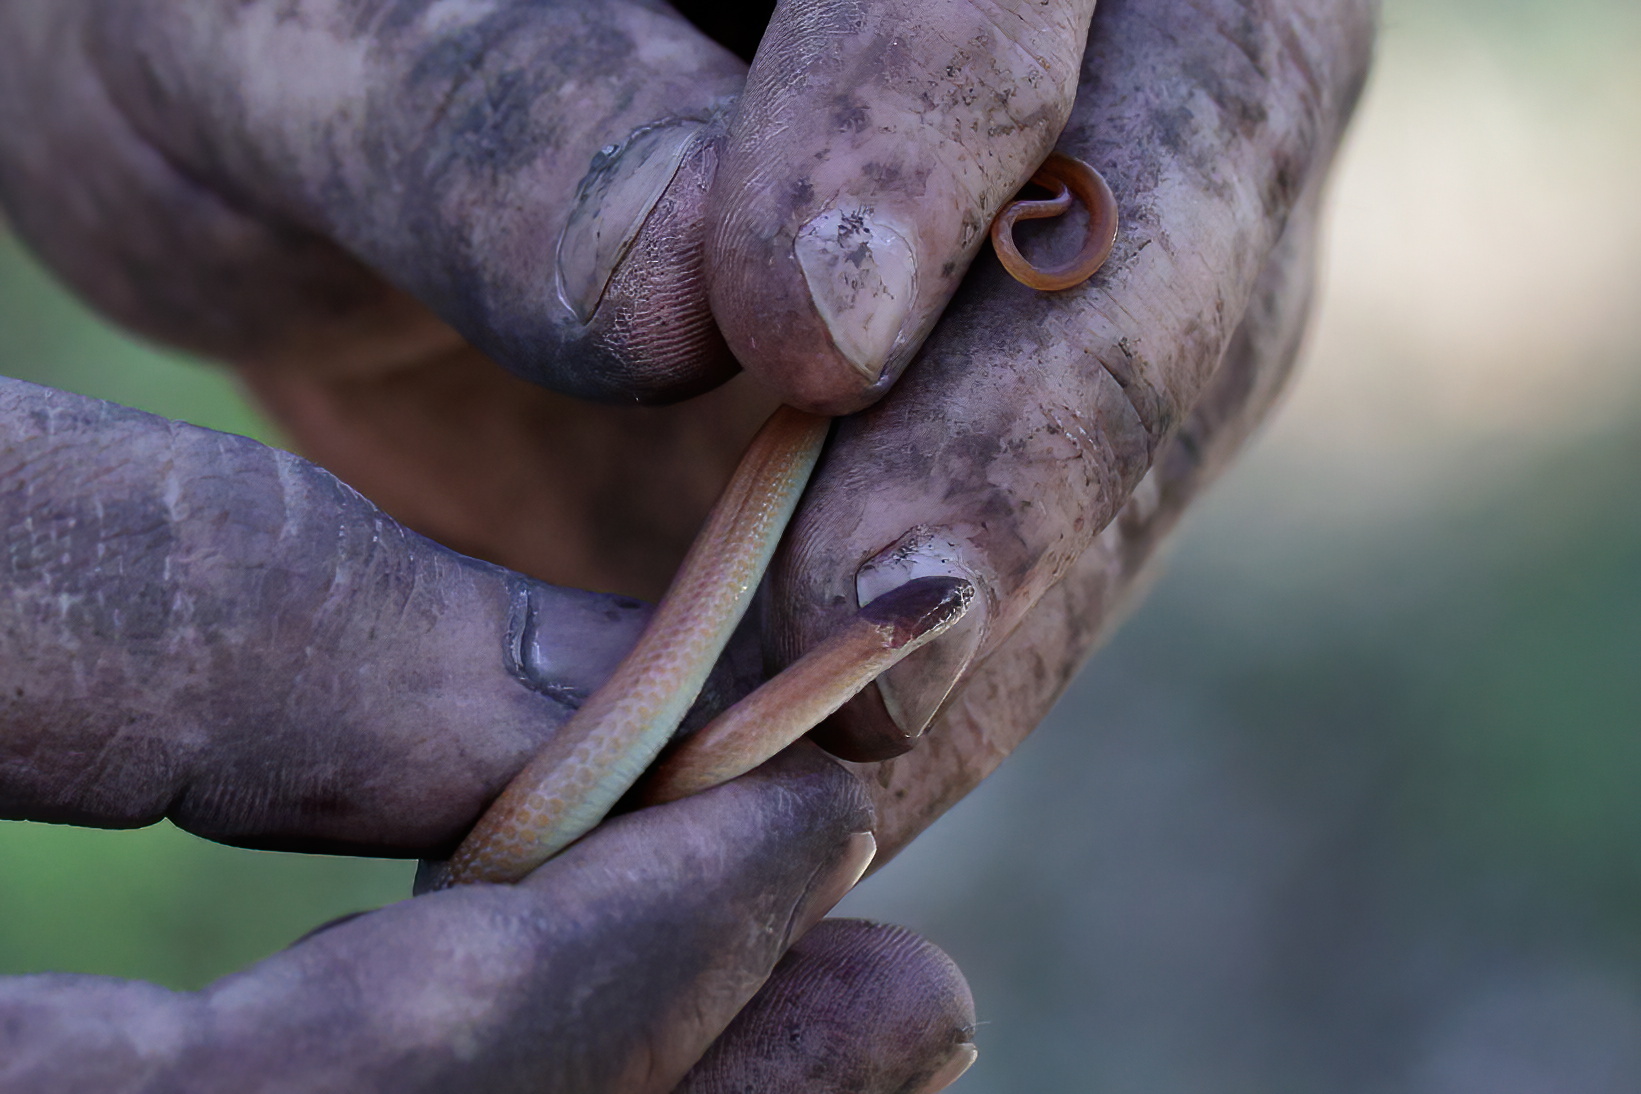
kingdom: Animalia
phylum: Chordata
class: Squamata
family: Colubridae
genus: Rhadinaea
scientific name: Rhadinaea flavilata
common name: Pine woods littersnake
